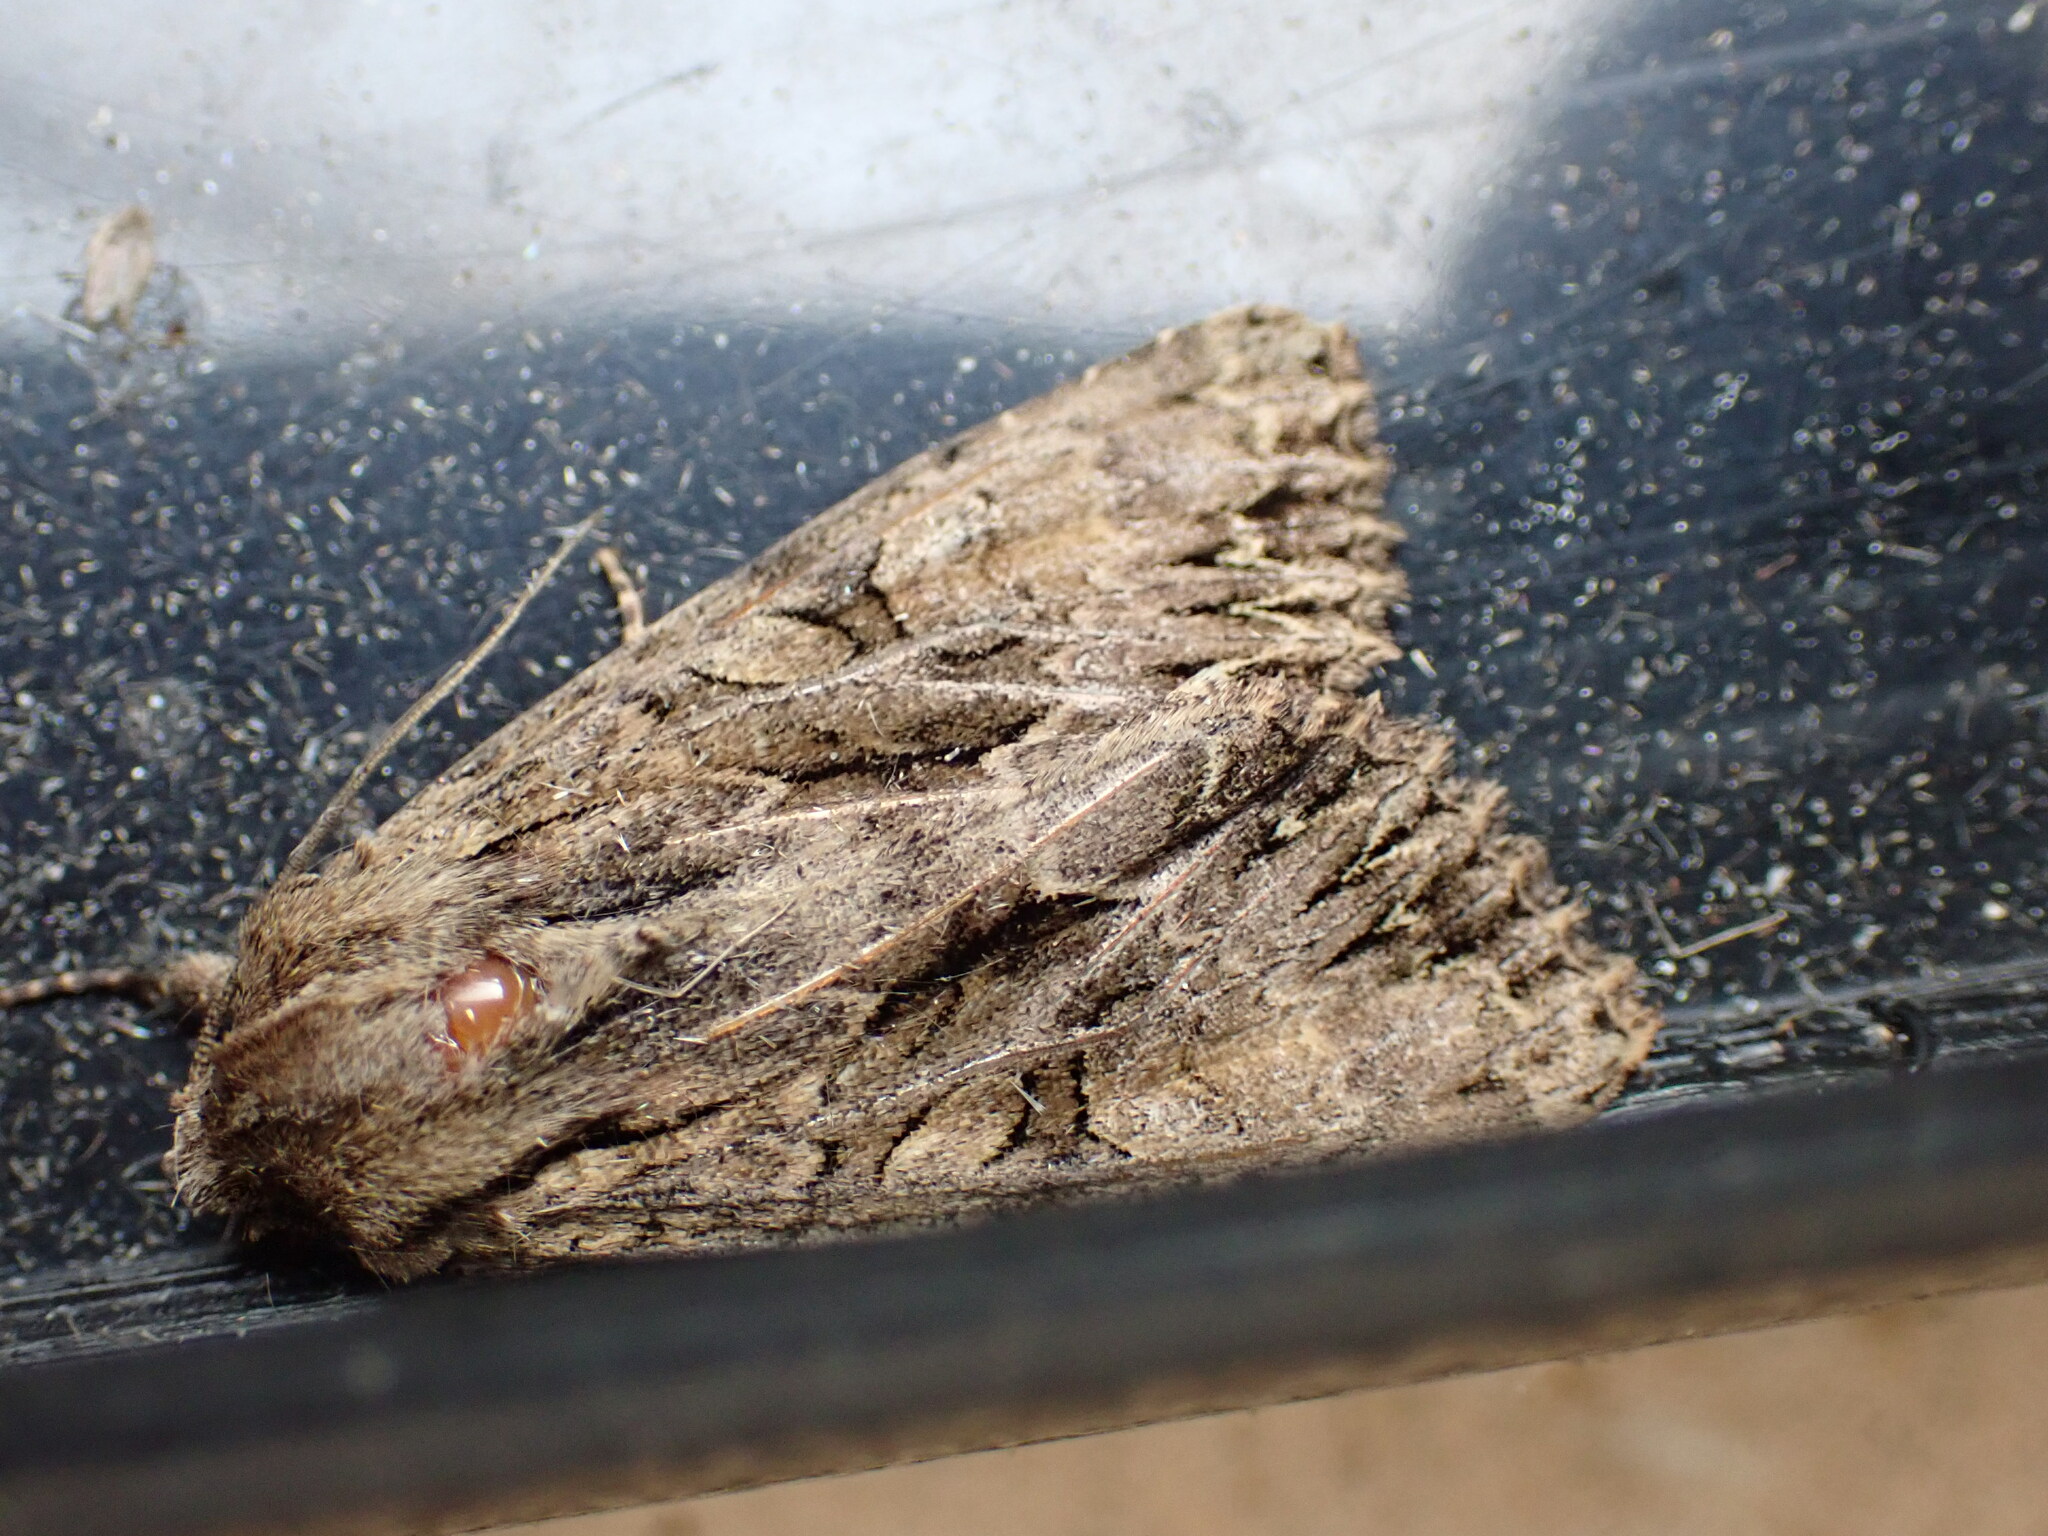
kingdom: Animalia
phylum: Arthropoda
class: Insecta
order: Lepidoptera
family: Noctuidae
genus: Apamea
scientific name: Apamea monoglypha
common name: Dark arches
